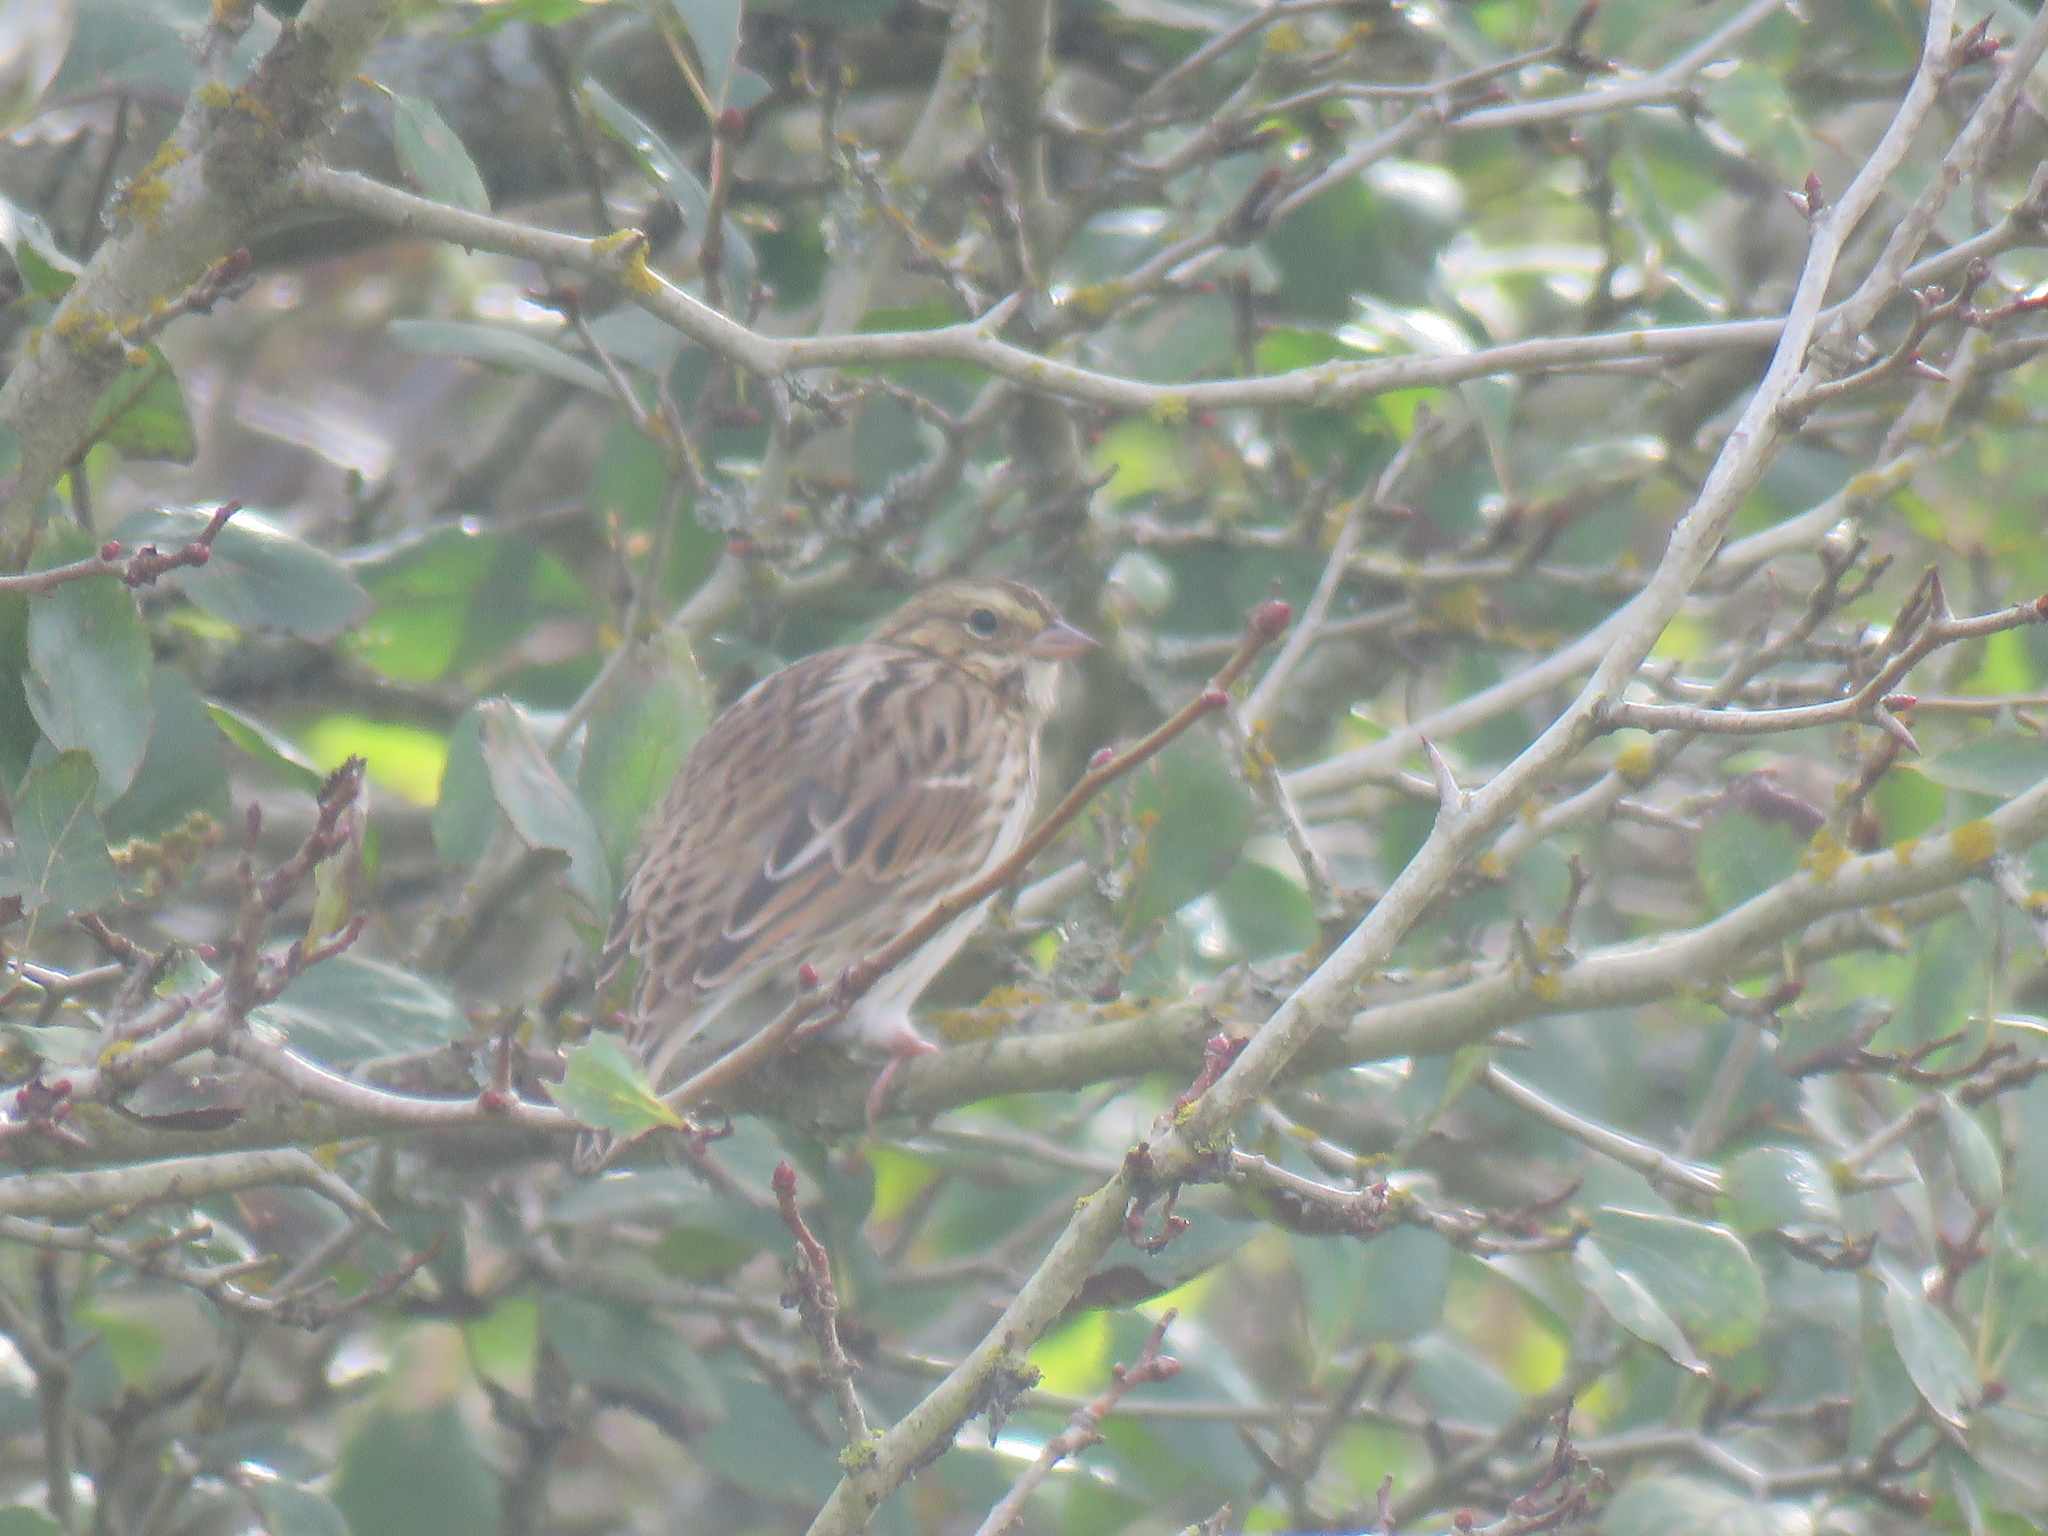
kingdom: Animalia
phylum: Chordata
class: Aves
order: Passeriformes
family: Passerellidae
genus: Passerculus
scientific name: Passerculus sandwichensis
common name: Savannah sparrow
